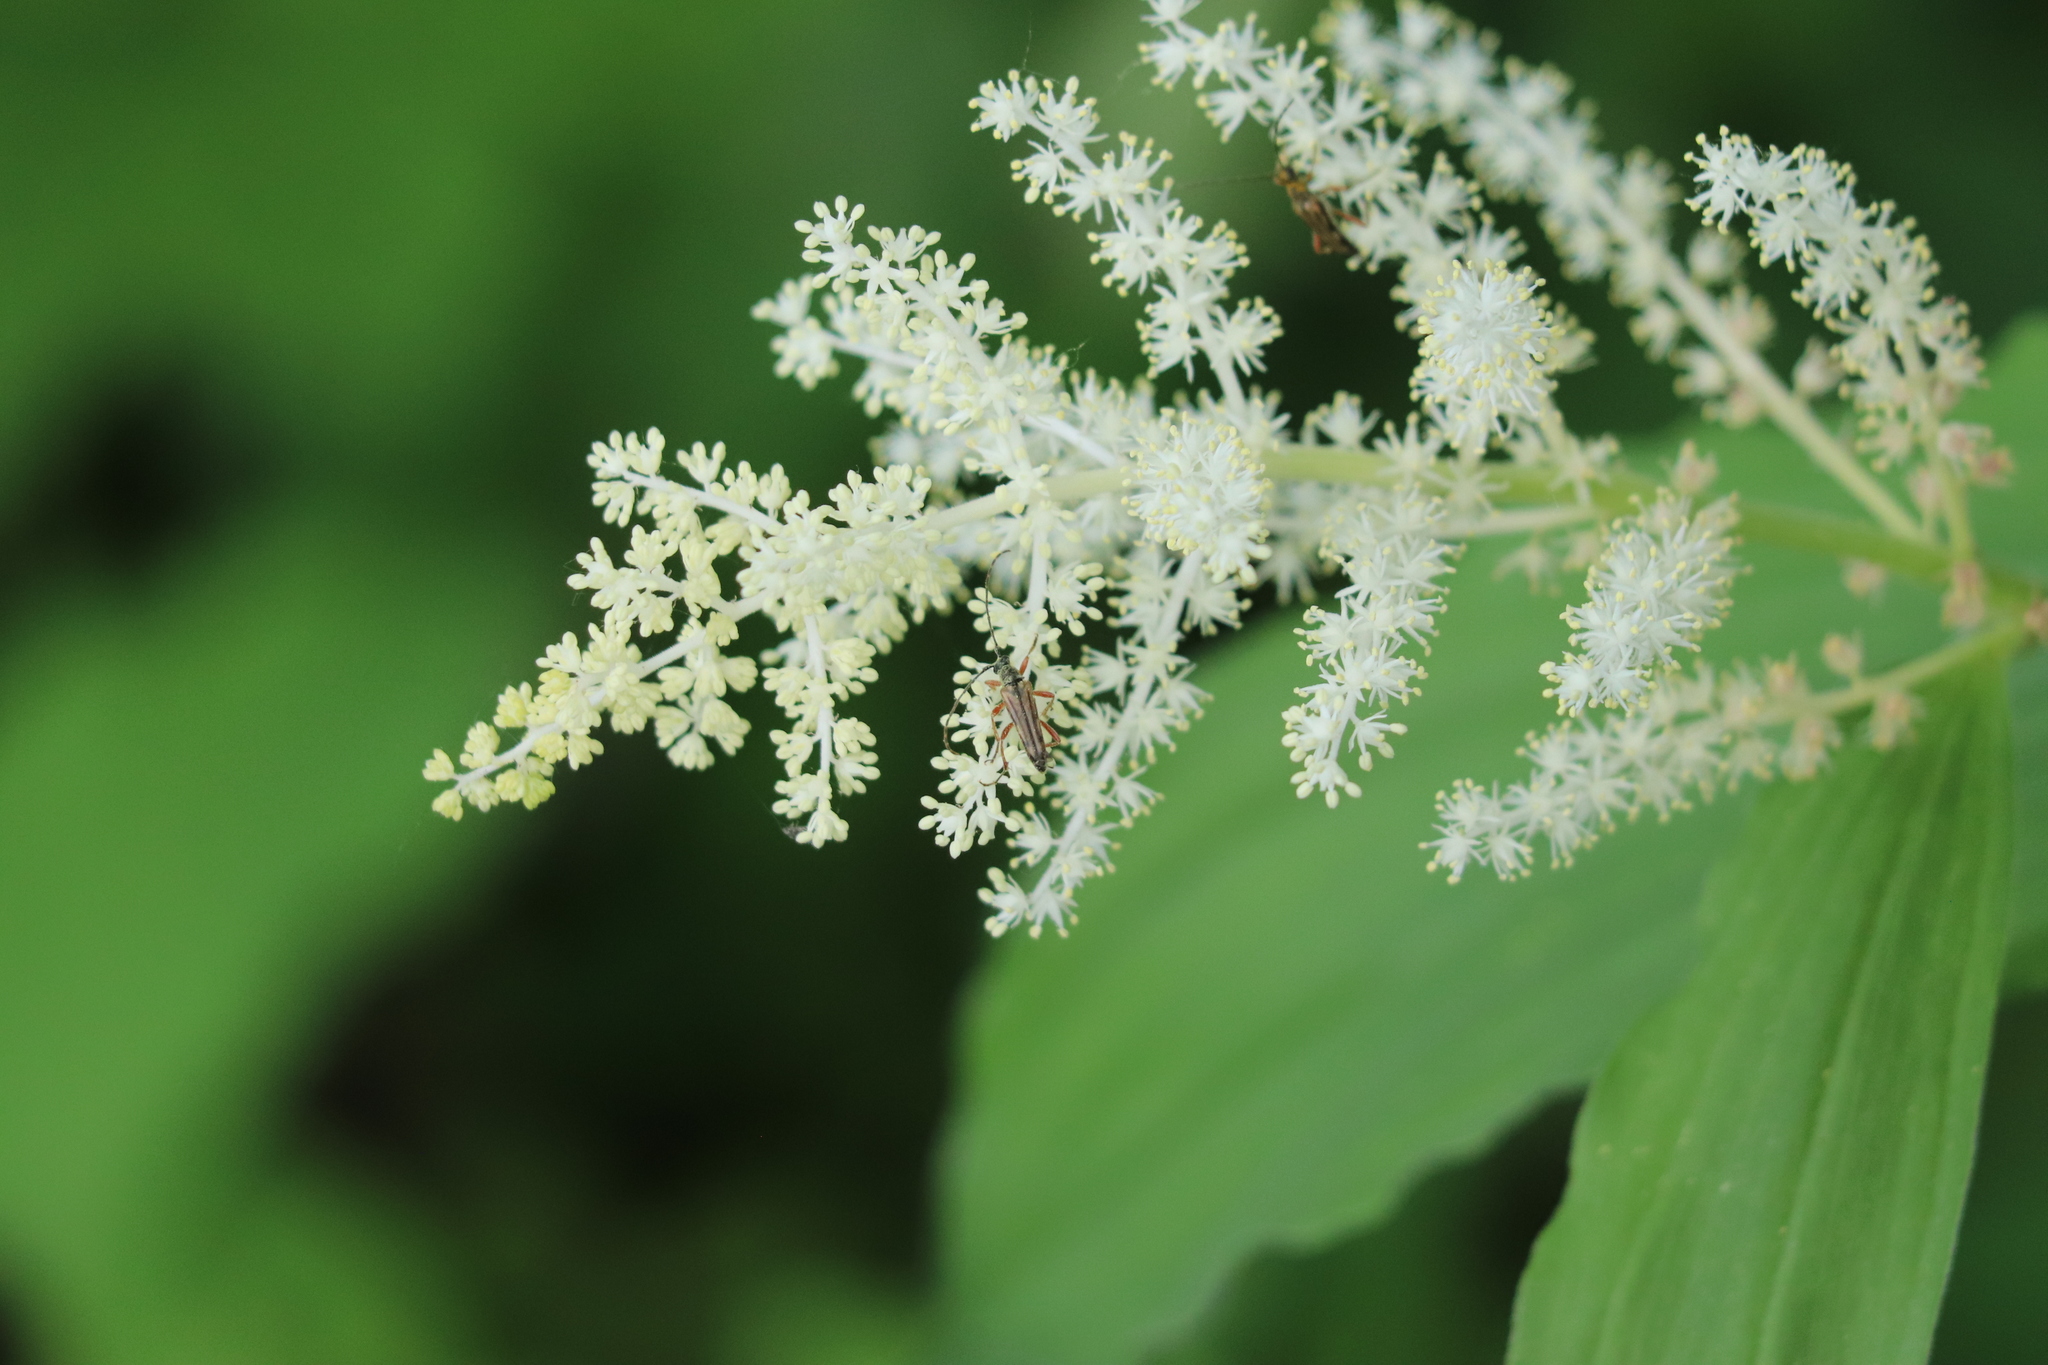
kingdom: Plantae
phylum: Tracheophyta
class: Liliopsida
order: Asparagales
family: Asparagaceae
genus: Maianthemum
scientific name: Maianthemum racemosum
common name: False spikenard
